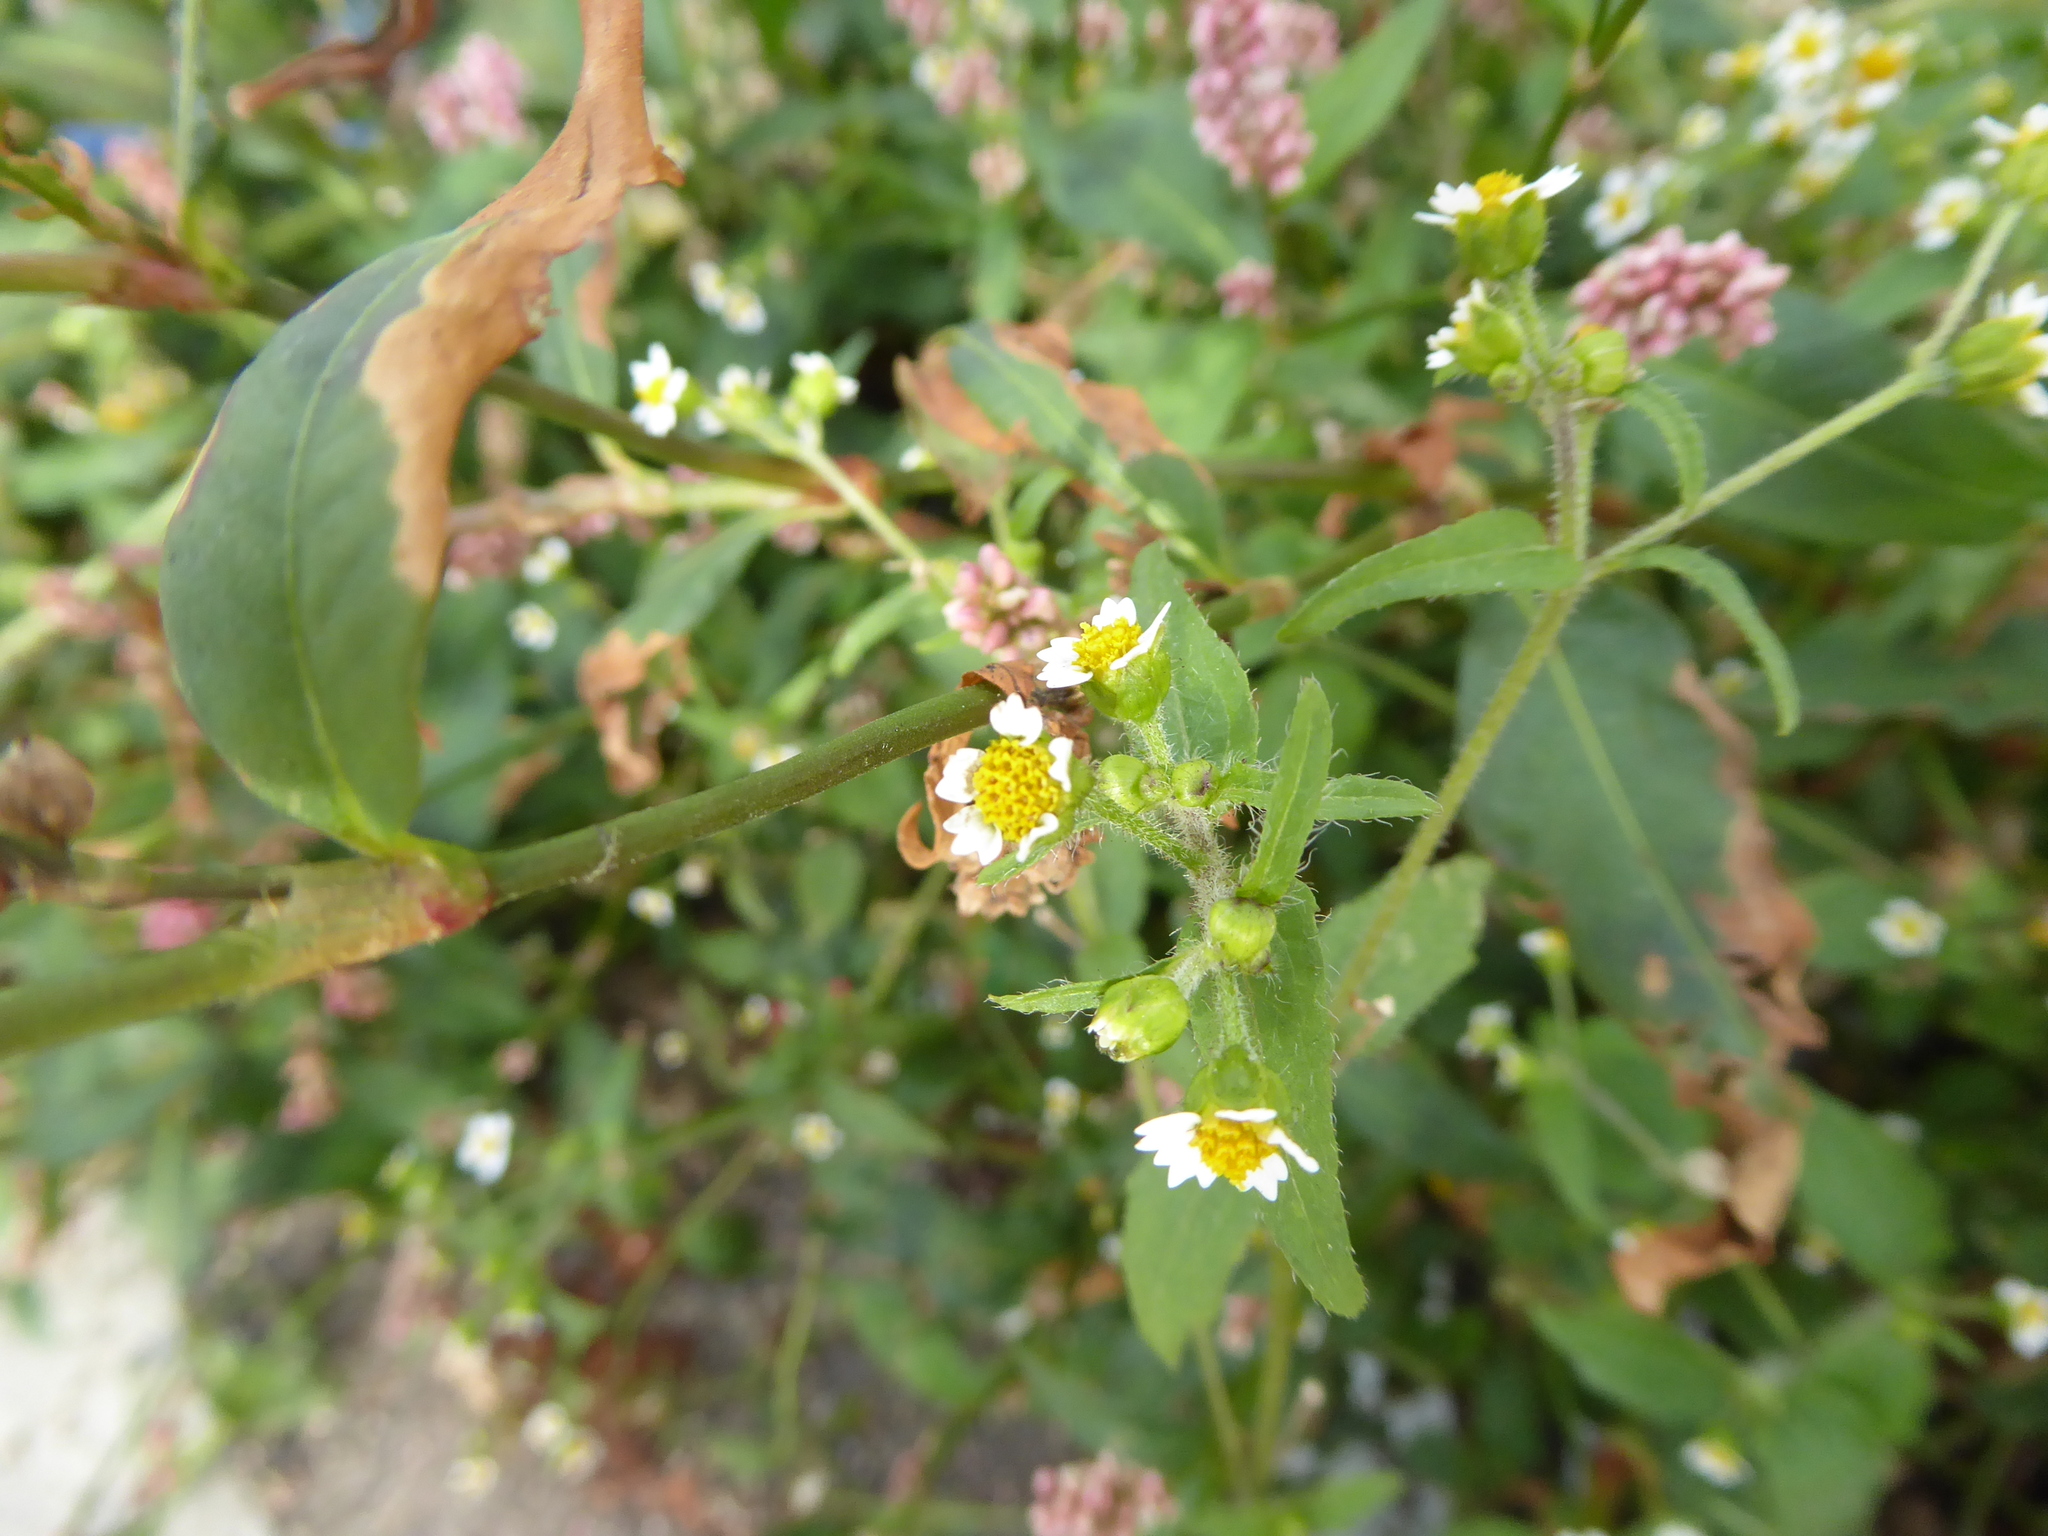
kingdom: Plantae
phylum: Tracheophyta
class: Magnoliopsida
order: Asterales
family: Asteraceae
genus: Galinsoga
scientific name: Galinsoga quadriradiata
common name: Shaggy soldier
